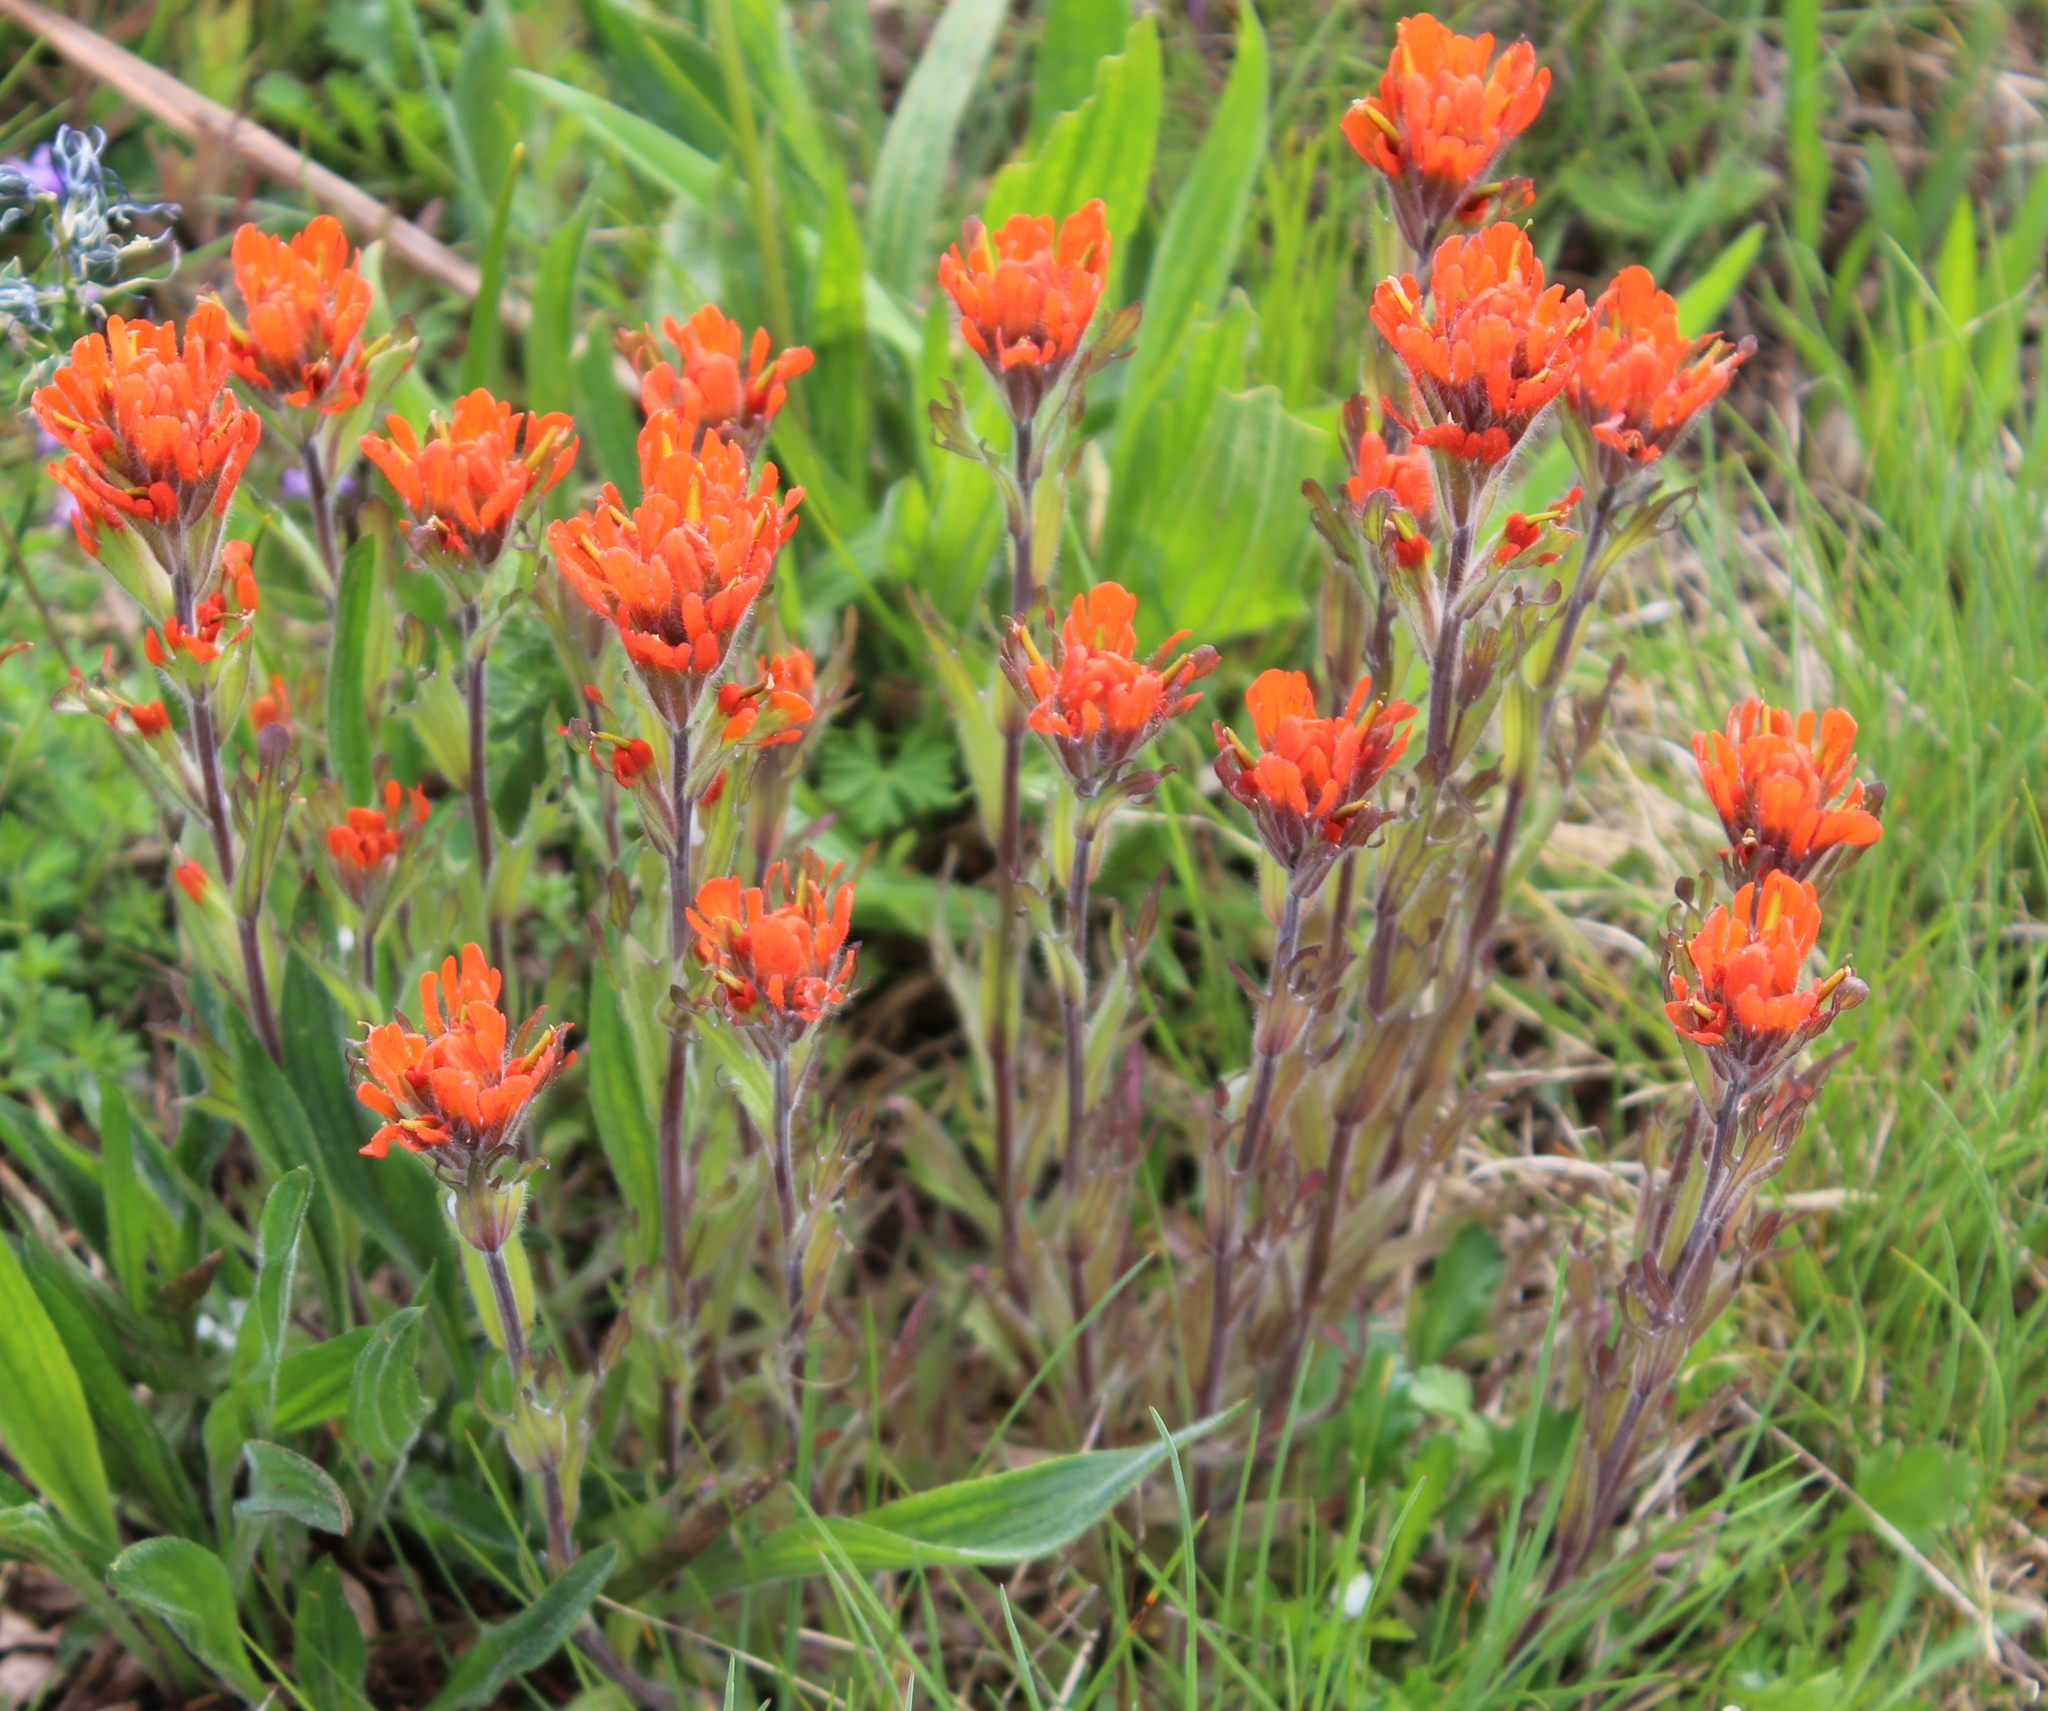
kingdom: Plantae
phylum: Tracheophyta
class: Magnoliopsida
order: Lamiales
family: Orobanchaceae
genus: Castilleja
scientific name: Castilleja hispida
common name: Bristly paintbrush
